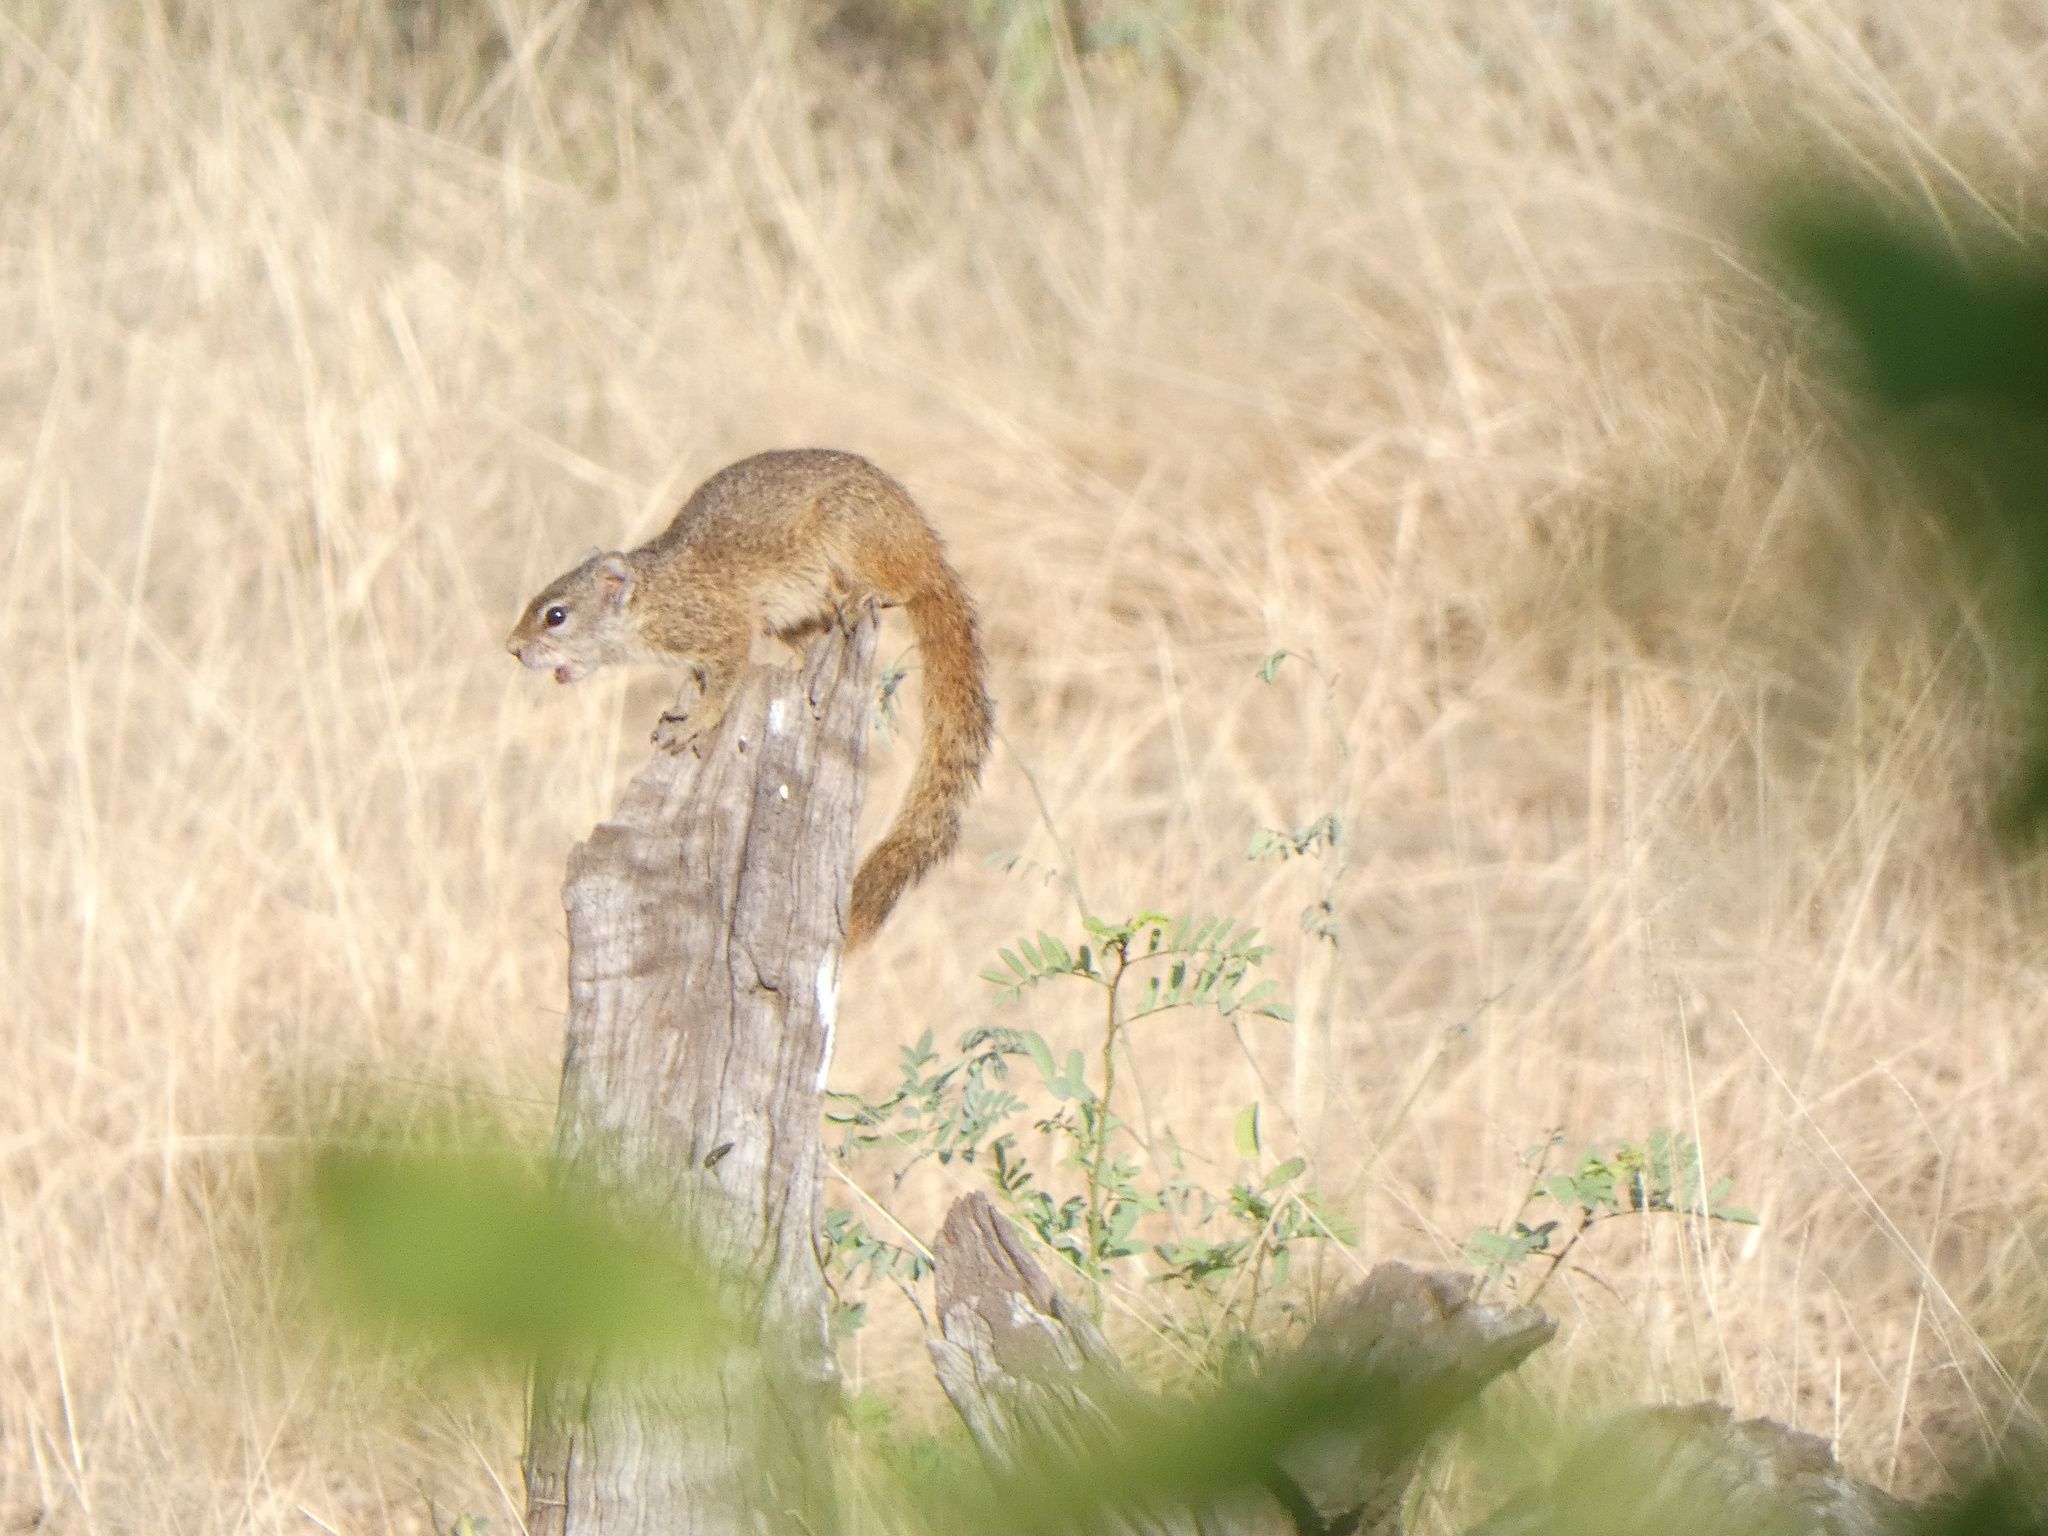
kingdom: Animalia
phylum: Chordata
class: Mammalia
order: Rodentia
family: Sciuridae
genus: Paraxerus
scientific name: Paraxerus cepapi
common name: Smith's bush squirrel
